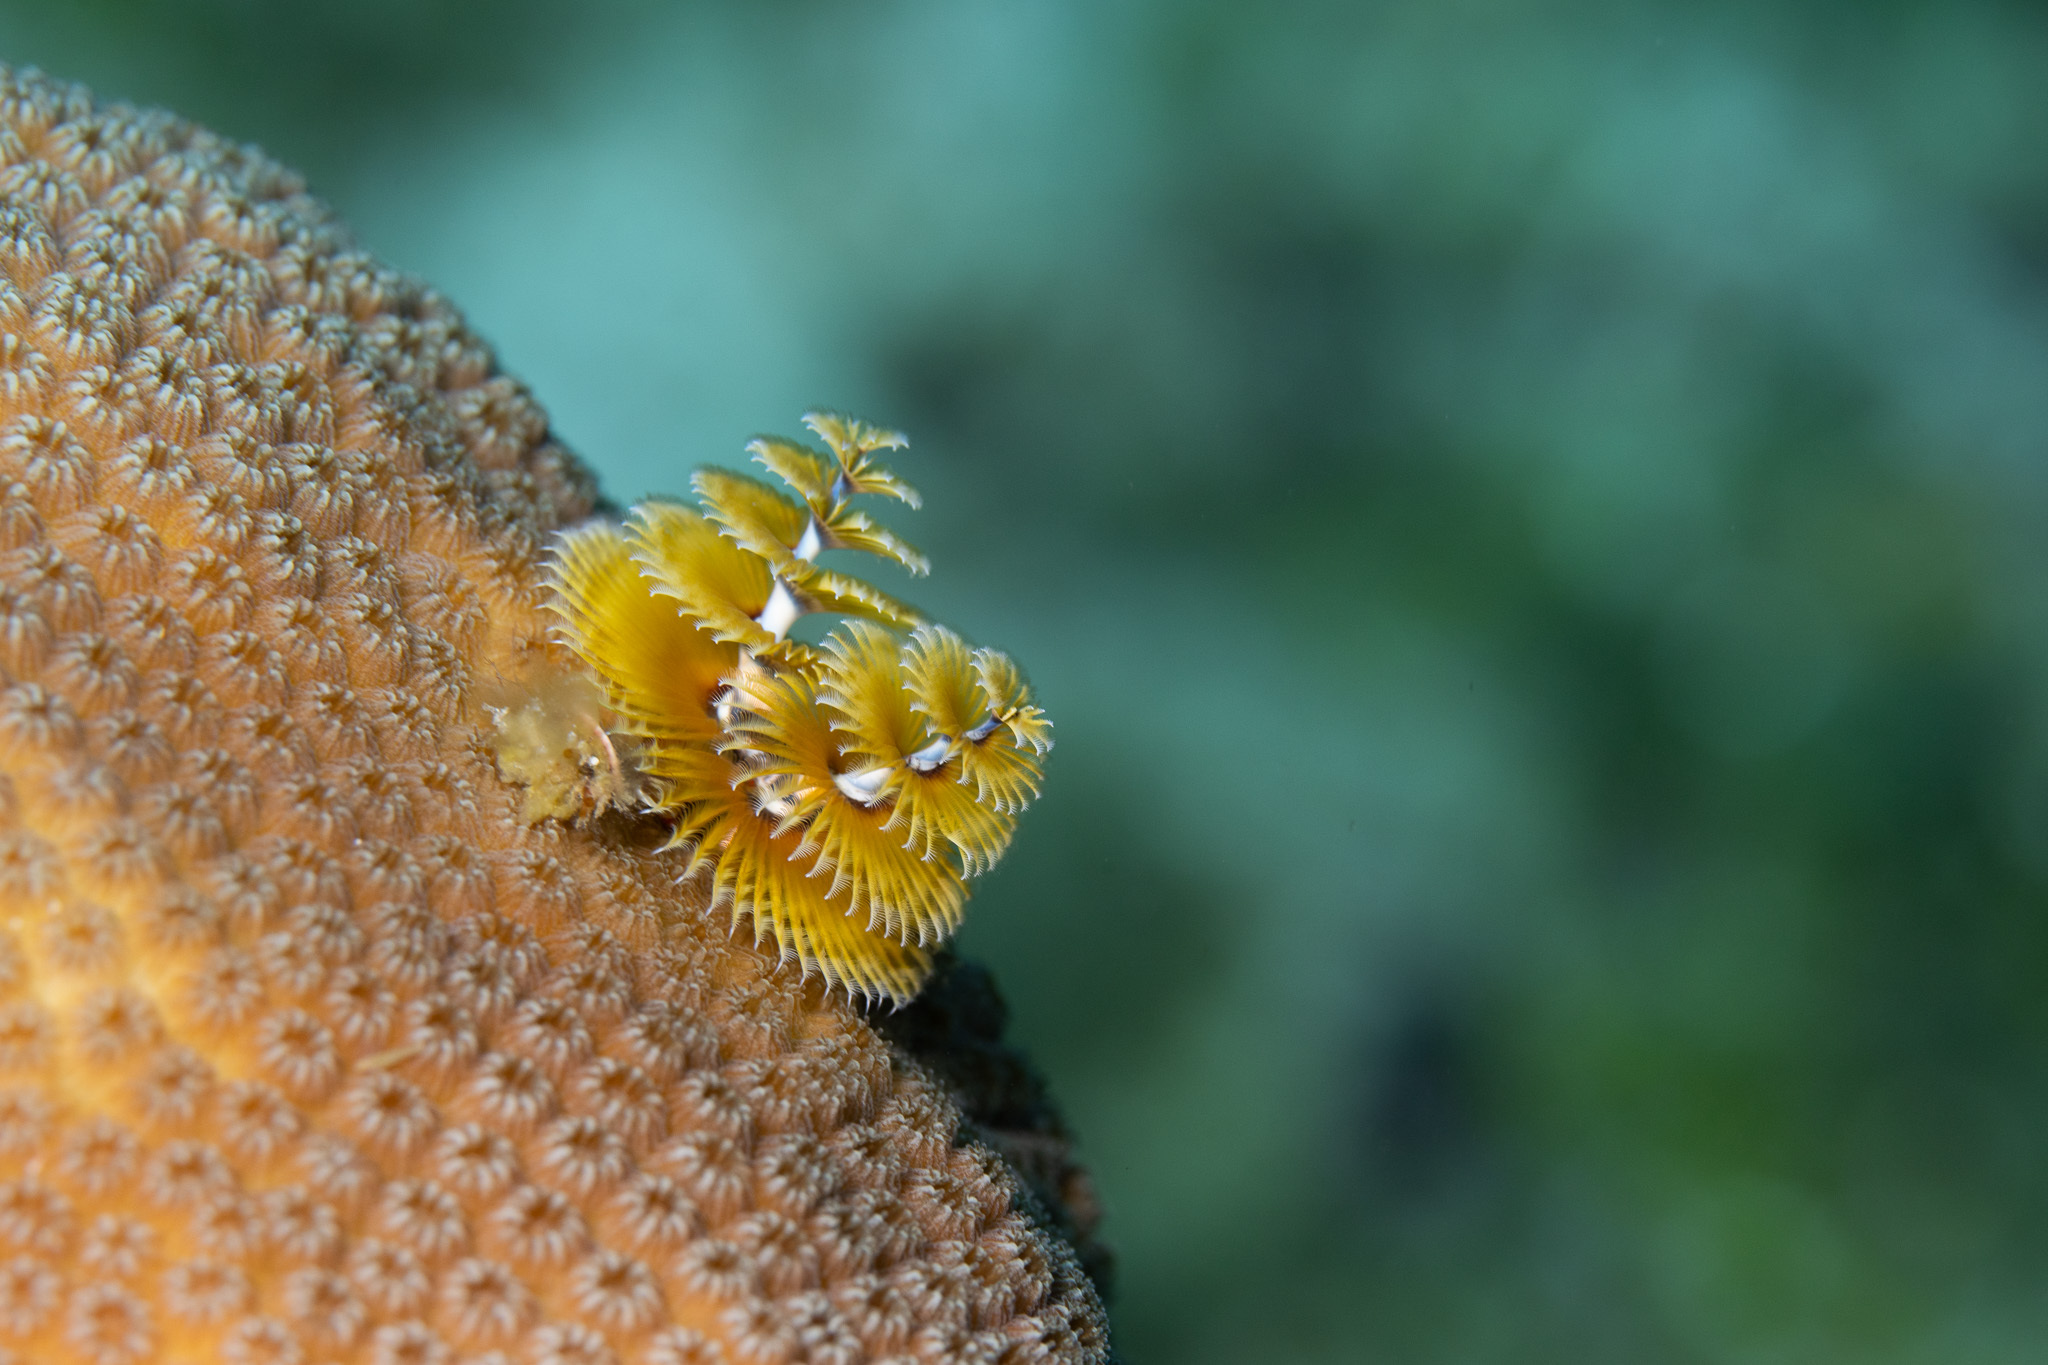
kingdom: Animalia
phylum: Annelida
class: Polychaeta
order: Sabellida
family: Serpulidae
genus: Spirobranchus
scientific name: Spirobranchus giganteus
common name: Christmas tree worm
